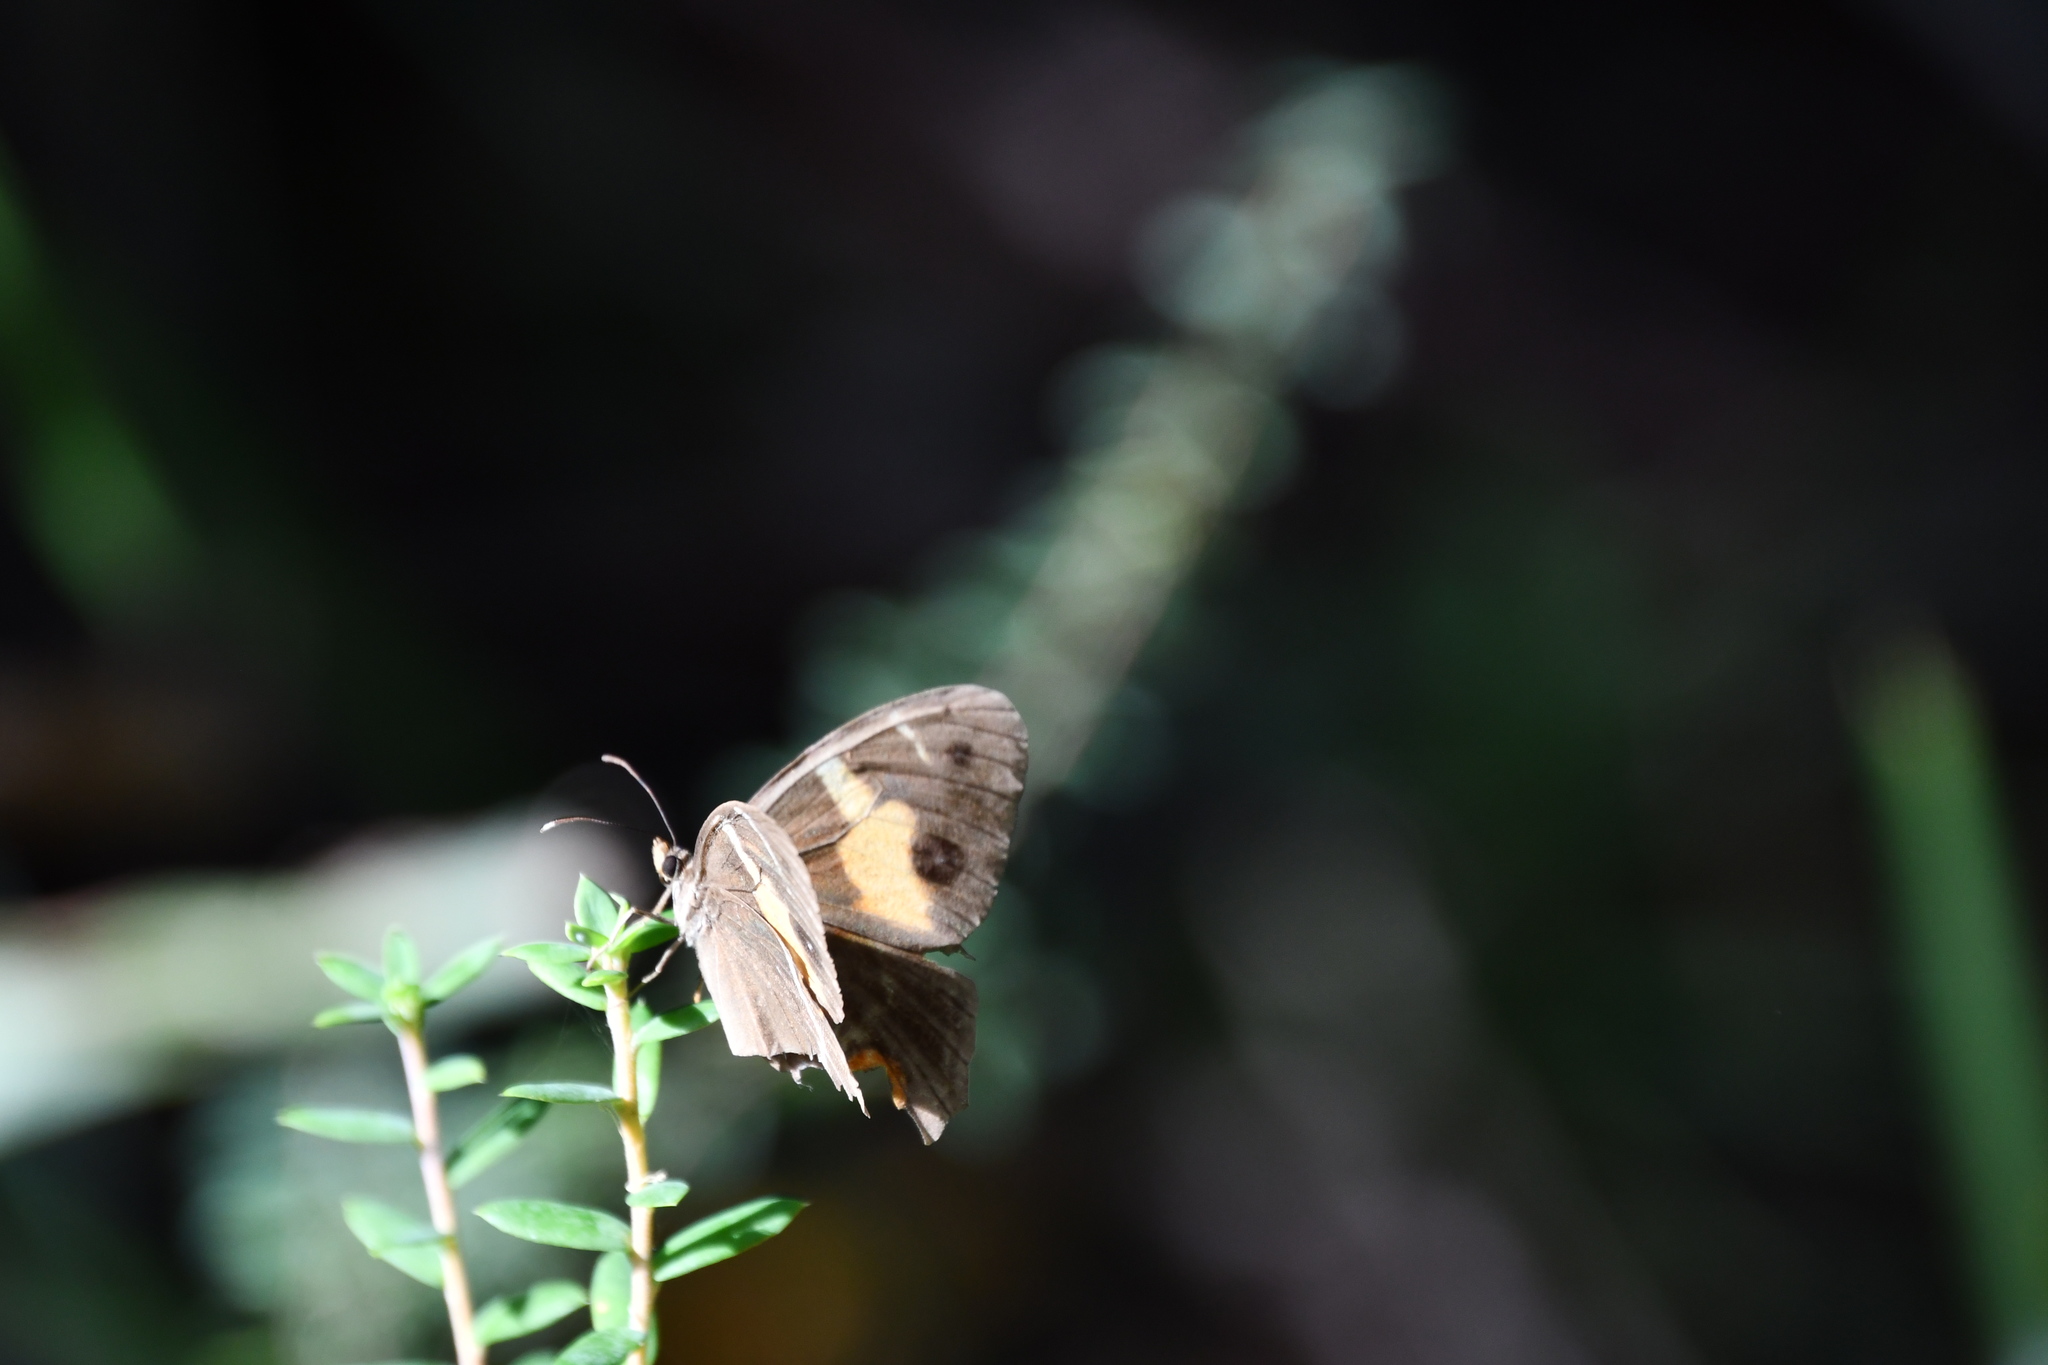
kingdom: Animalia
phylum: Arthropoda
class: Insecta
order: Lepidoptera
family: Nymphalidae
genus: Tisiphone
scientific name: Tisiphone abeona
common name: Swordgrass brown
